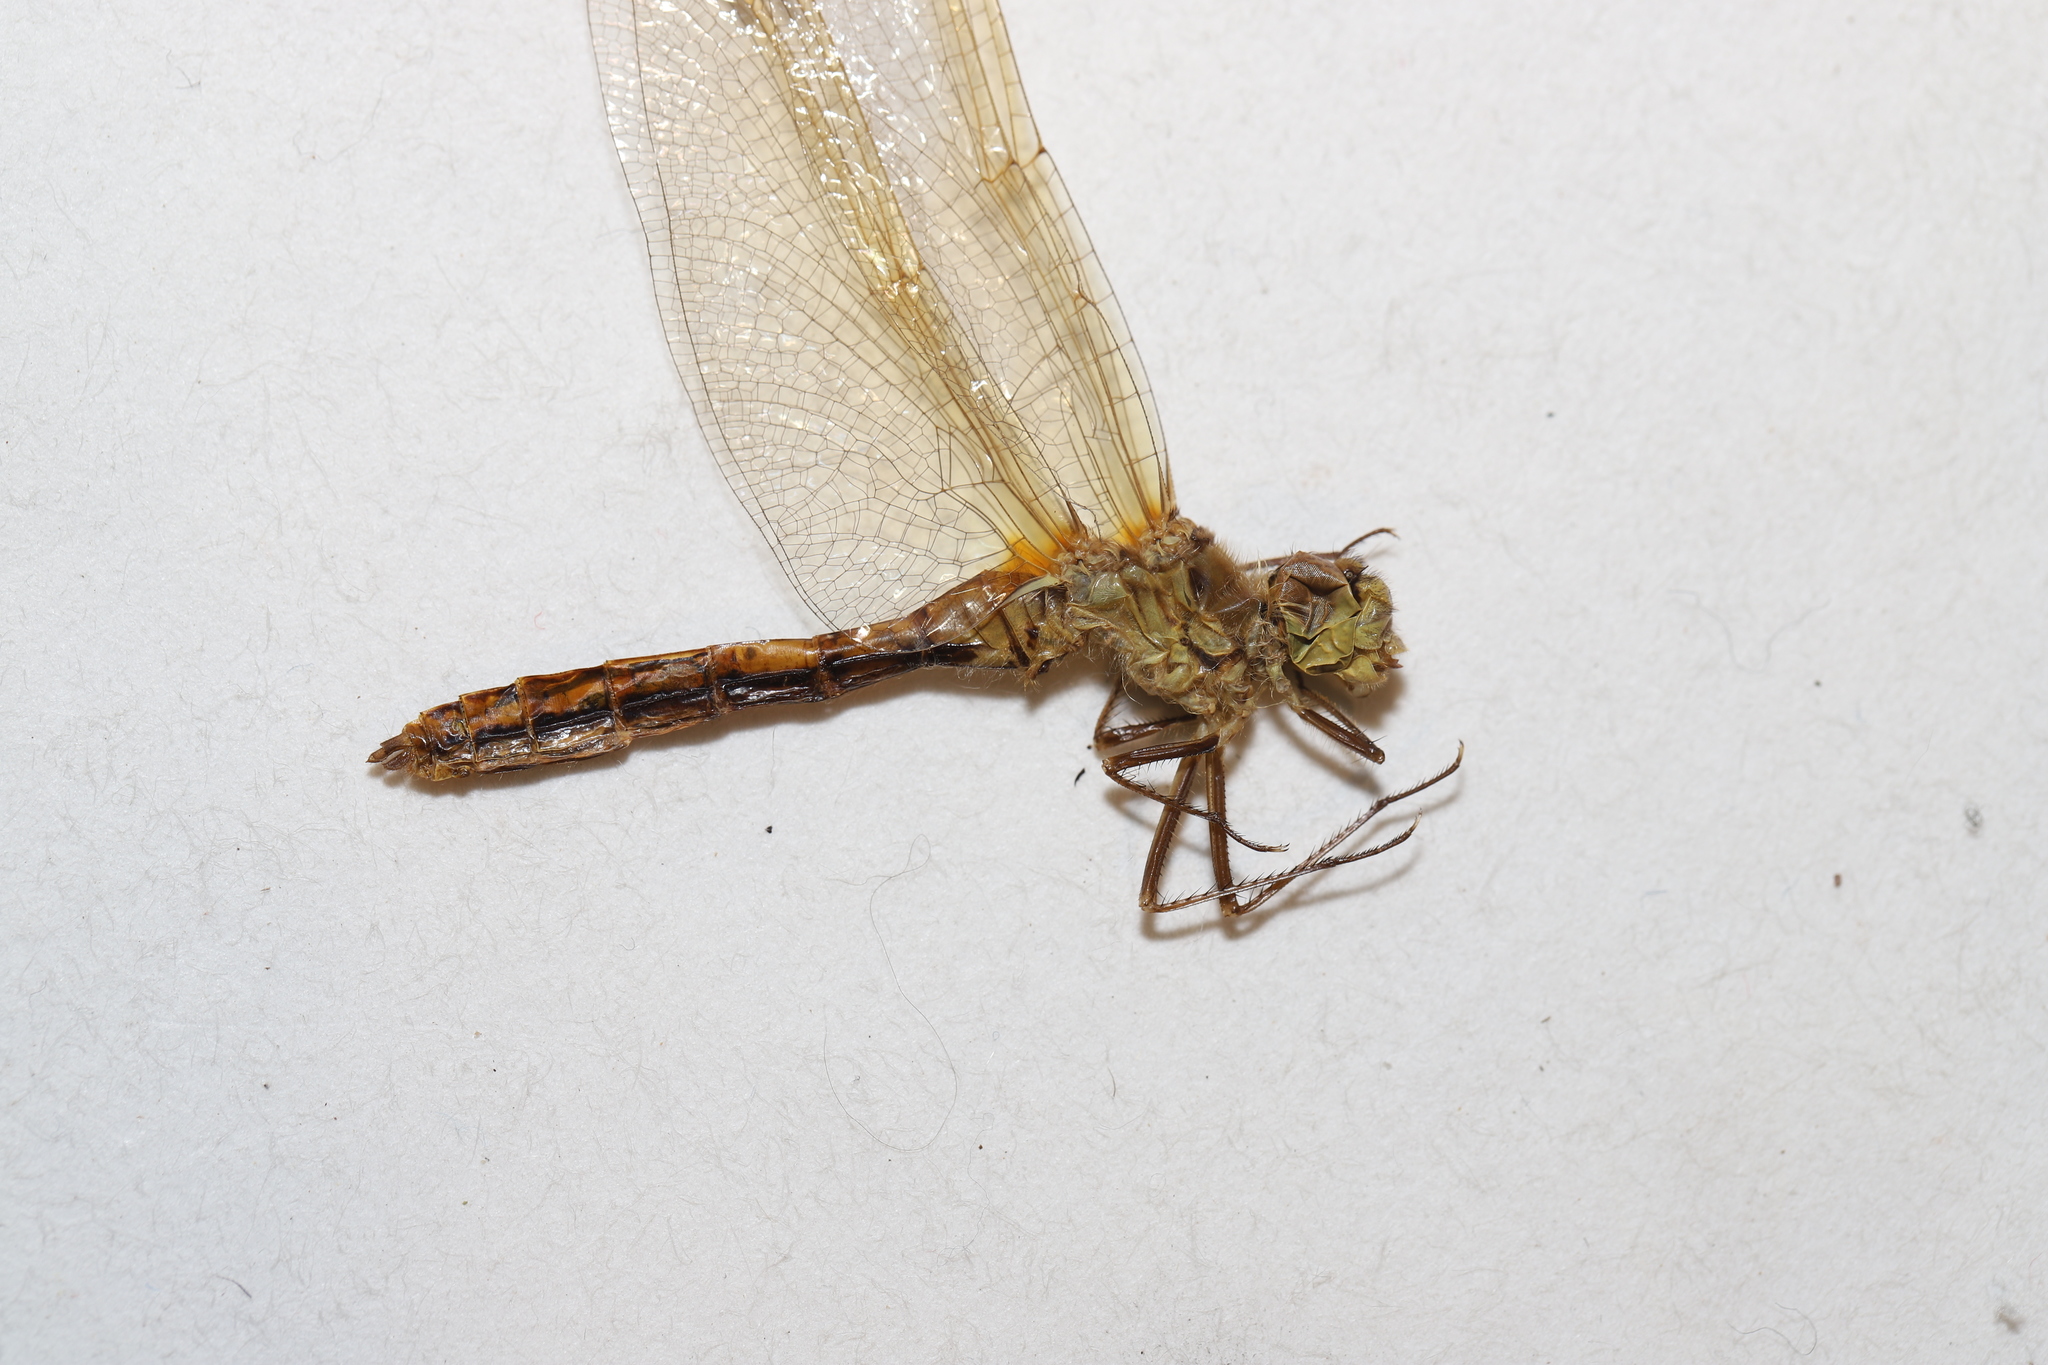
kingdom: Animalia
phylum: Arthropoda
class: Insecta
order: Odonata
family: Libellulidae
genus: Sympetrum
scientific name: Sympetrum costiferum
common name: Saffron-winged meadowhawk
